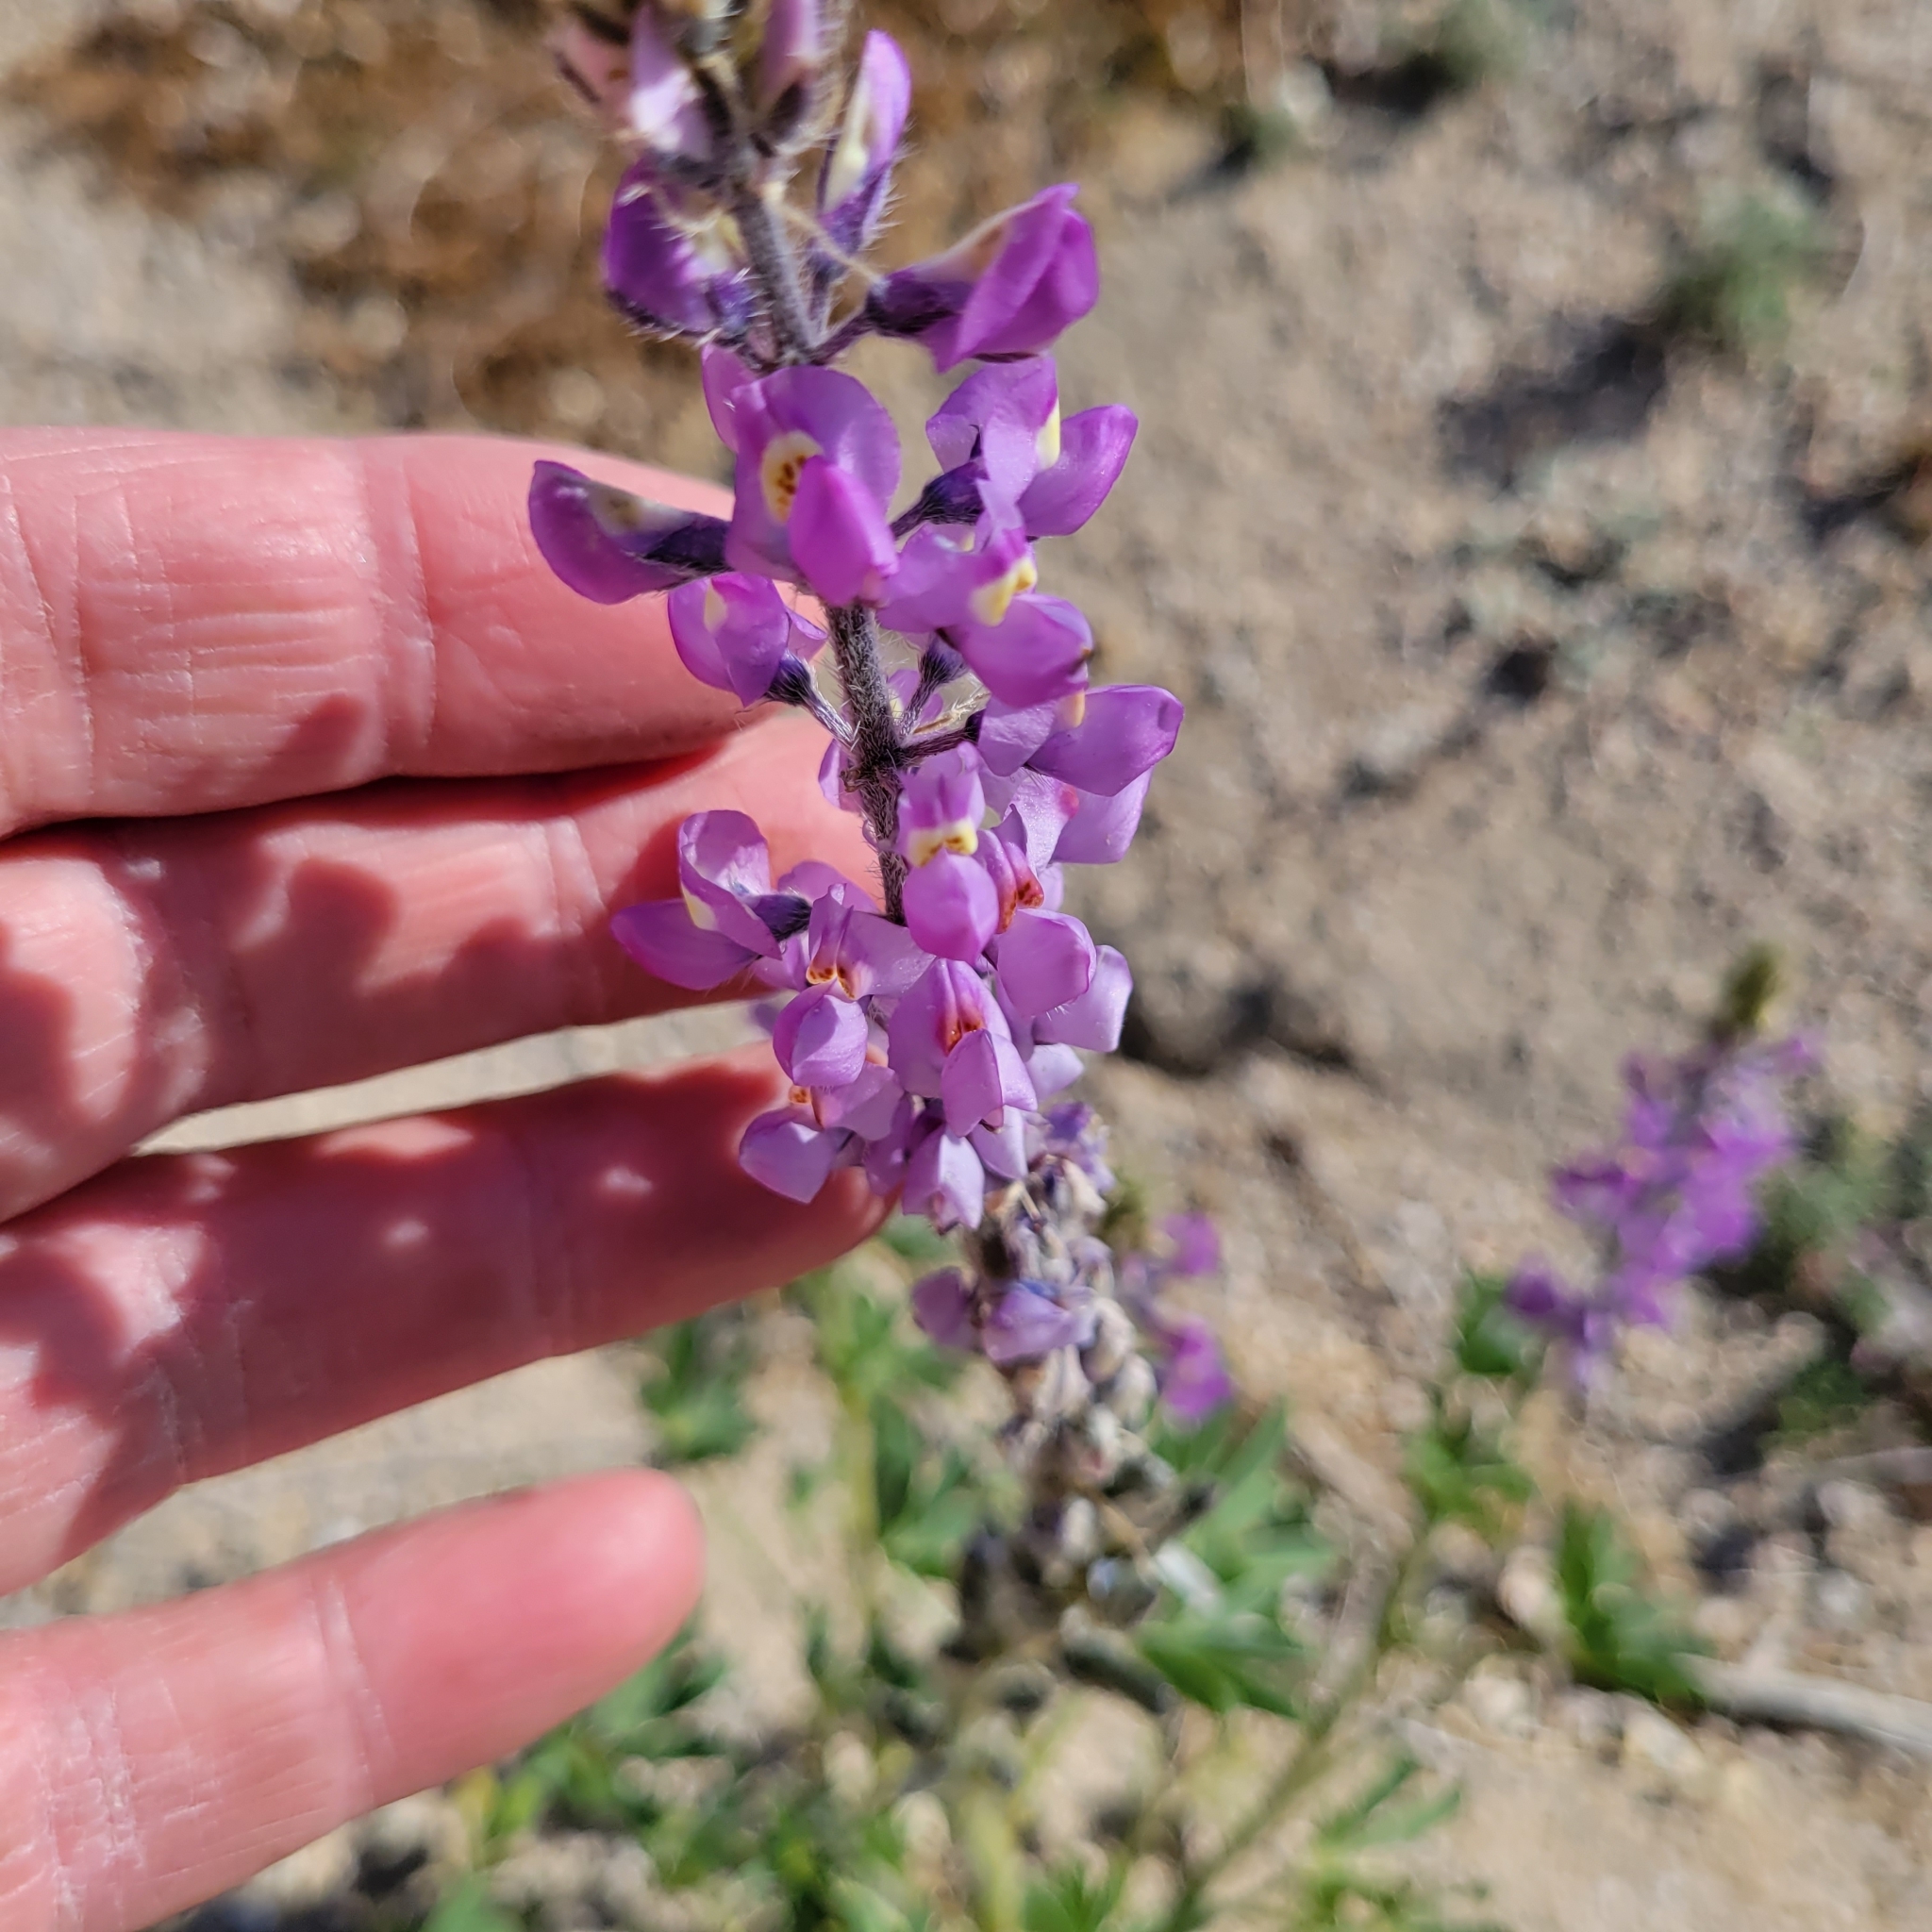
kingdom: Plantae
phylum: Tracheophyta
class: Magnoliopsida
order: Fabales
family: Fabaceae
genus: Lupinus
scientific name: Lupinus arizonicus
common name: Arizona lupine
